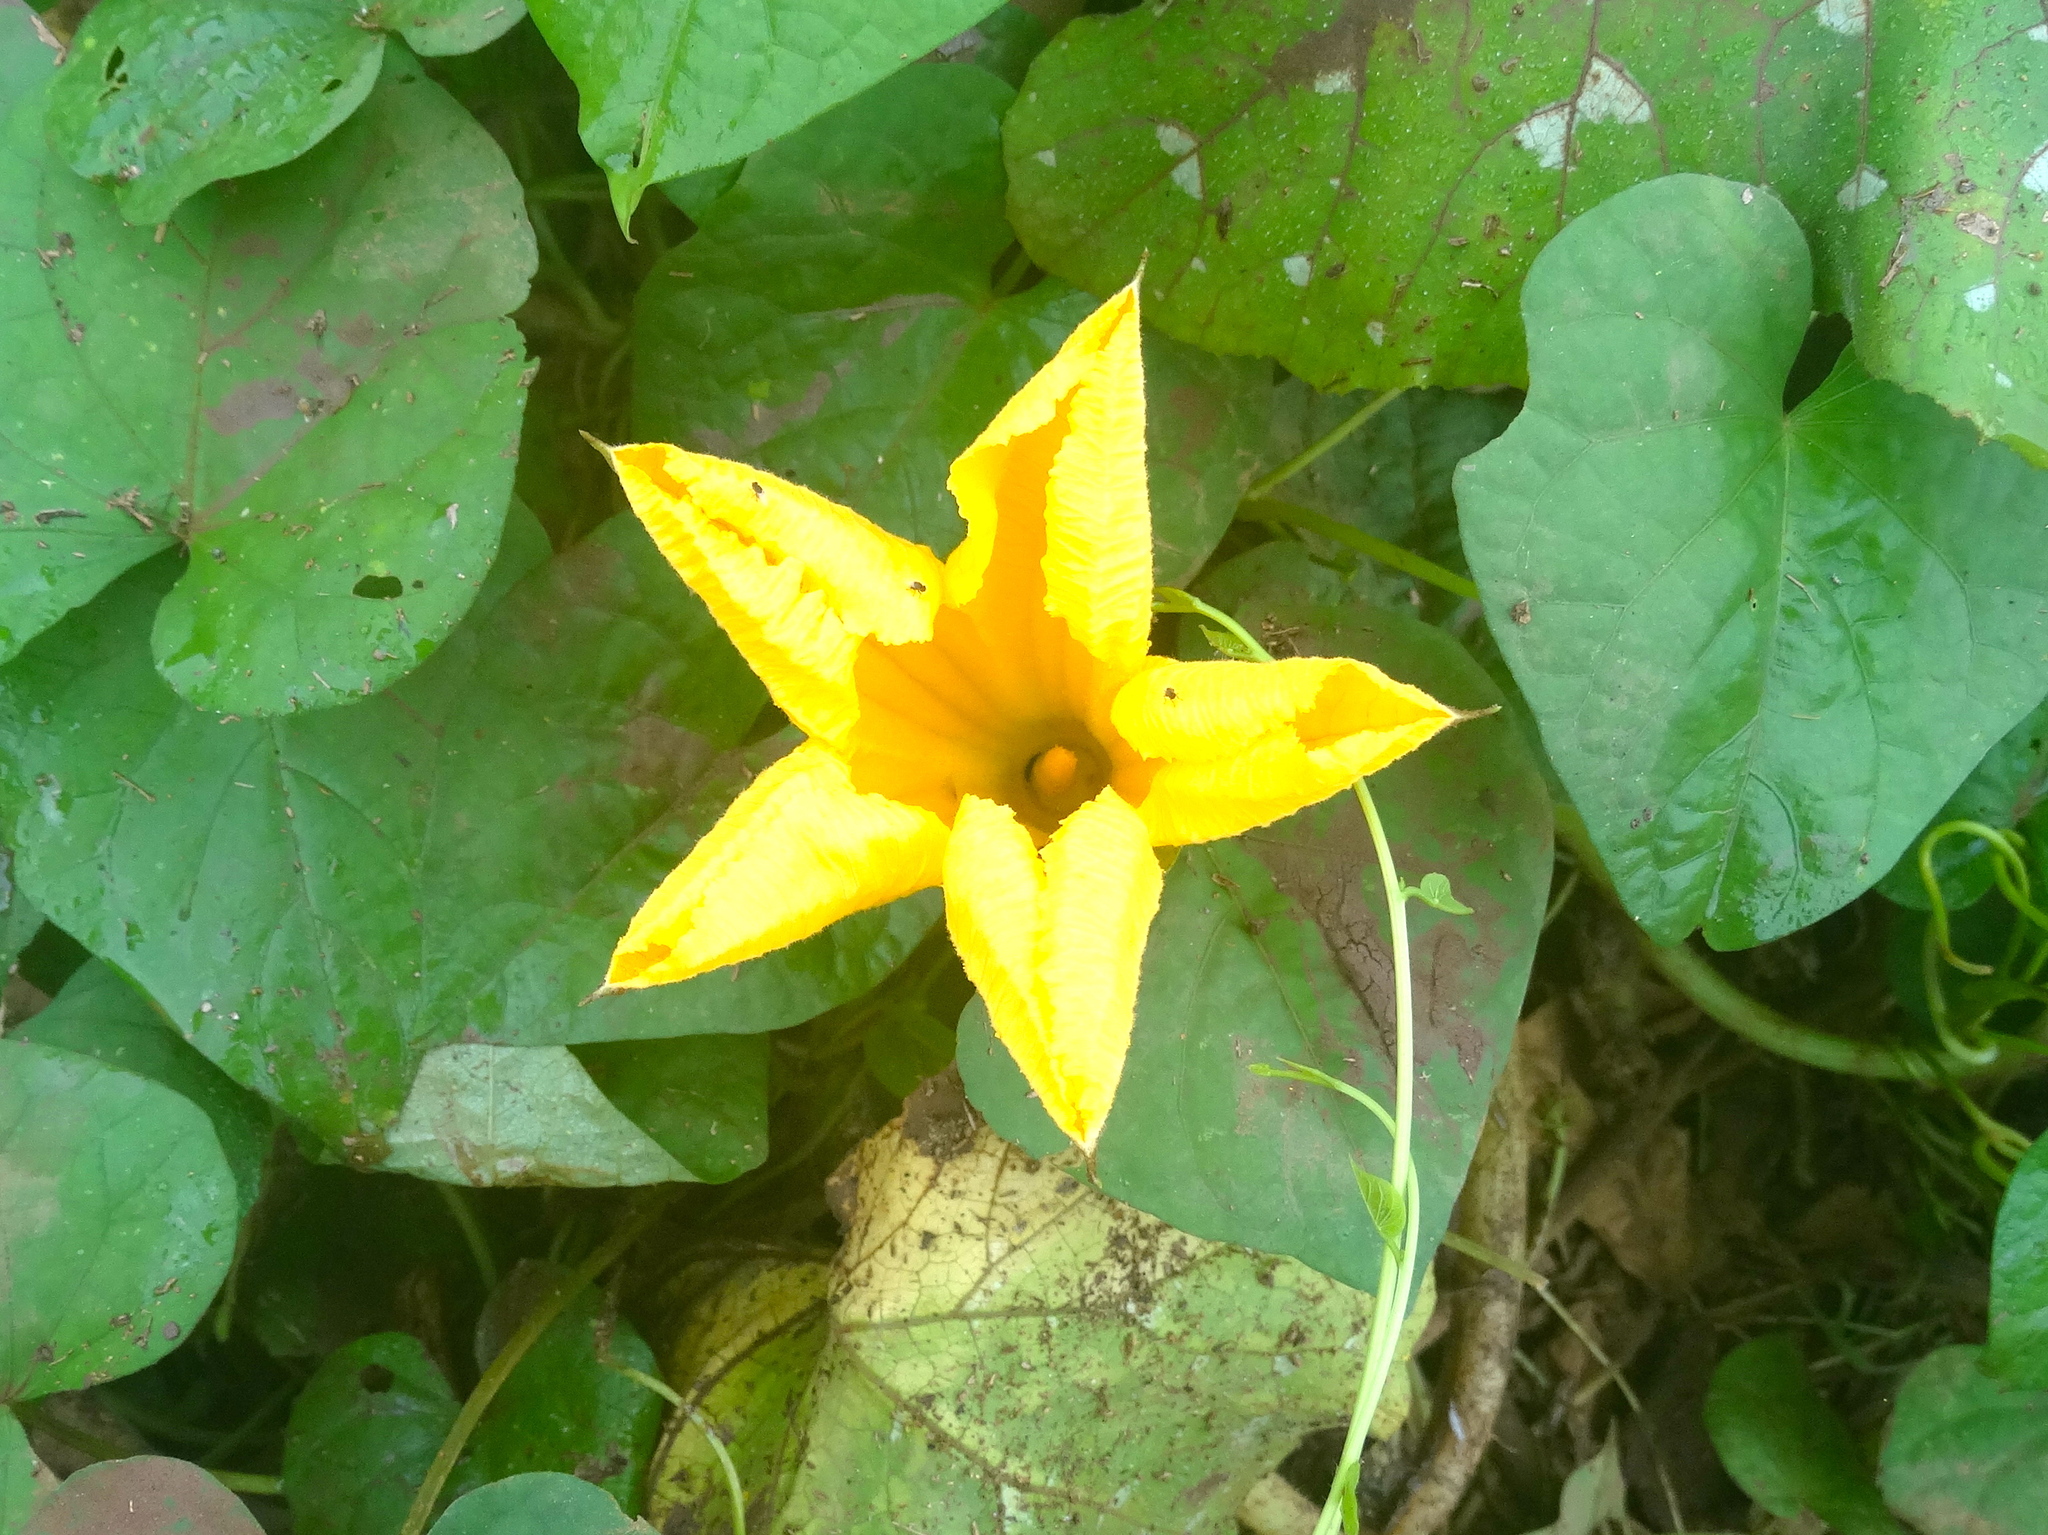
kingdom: Plantae
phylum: Tracheophyta
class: Magnoliopsida
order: Cucurbitales
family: Cucurbitaceae
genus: Cucurbita
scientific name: Cucurbita ficifolia
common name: Figleaf gourd
